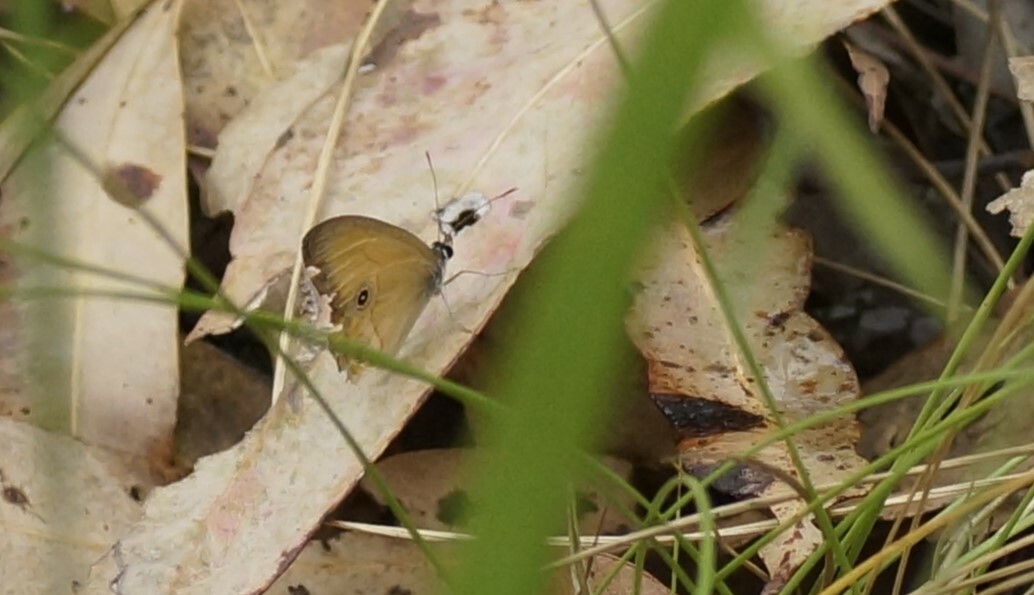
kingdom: Animalia
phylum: Arthropoda
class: Insecta
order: Lepidoptera
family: Nymphalidae
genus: Hypocysta
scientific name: Hypocysta adiante
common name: Orange ringlet
